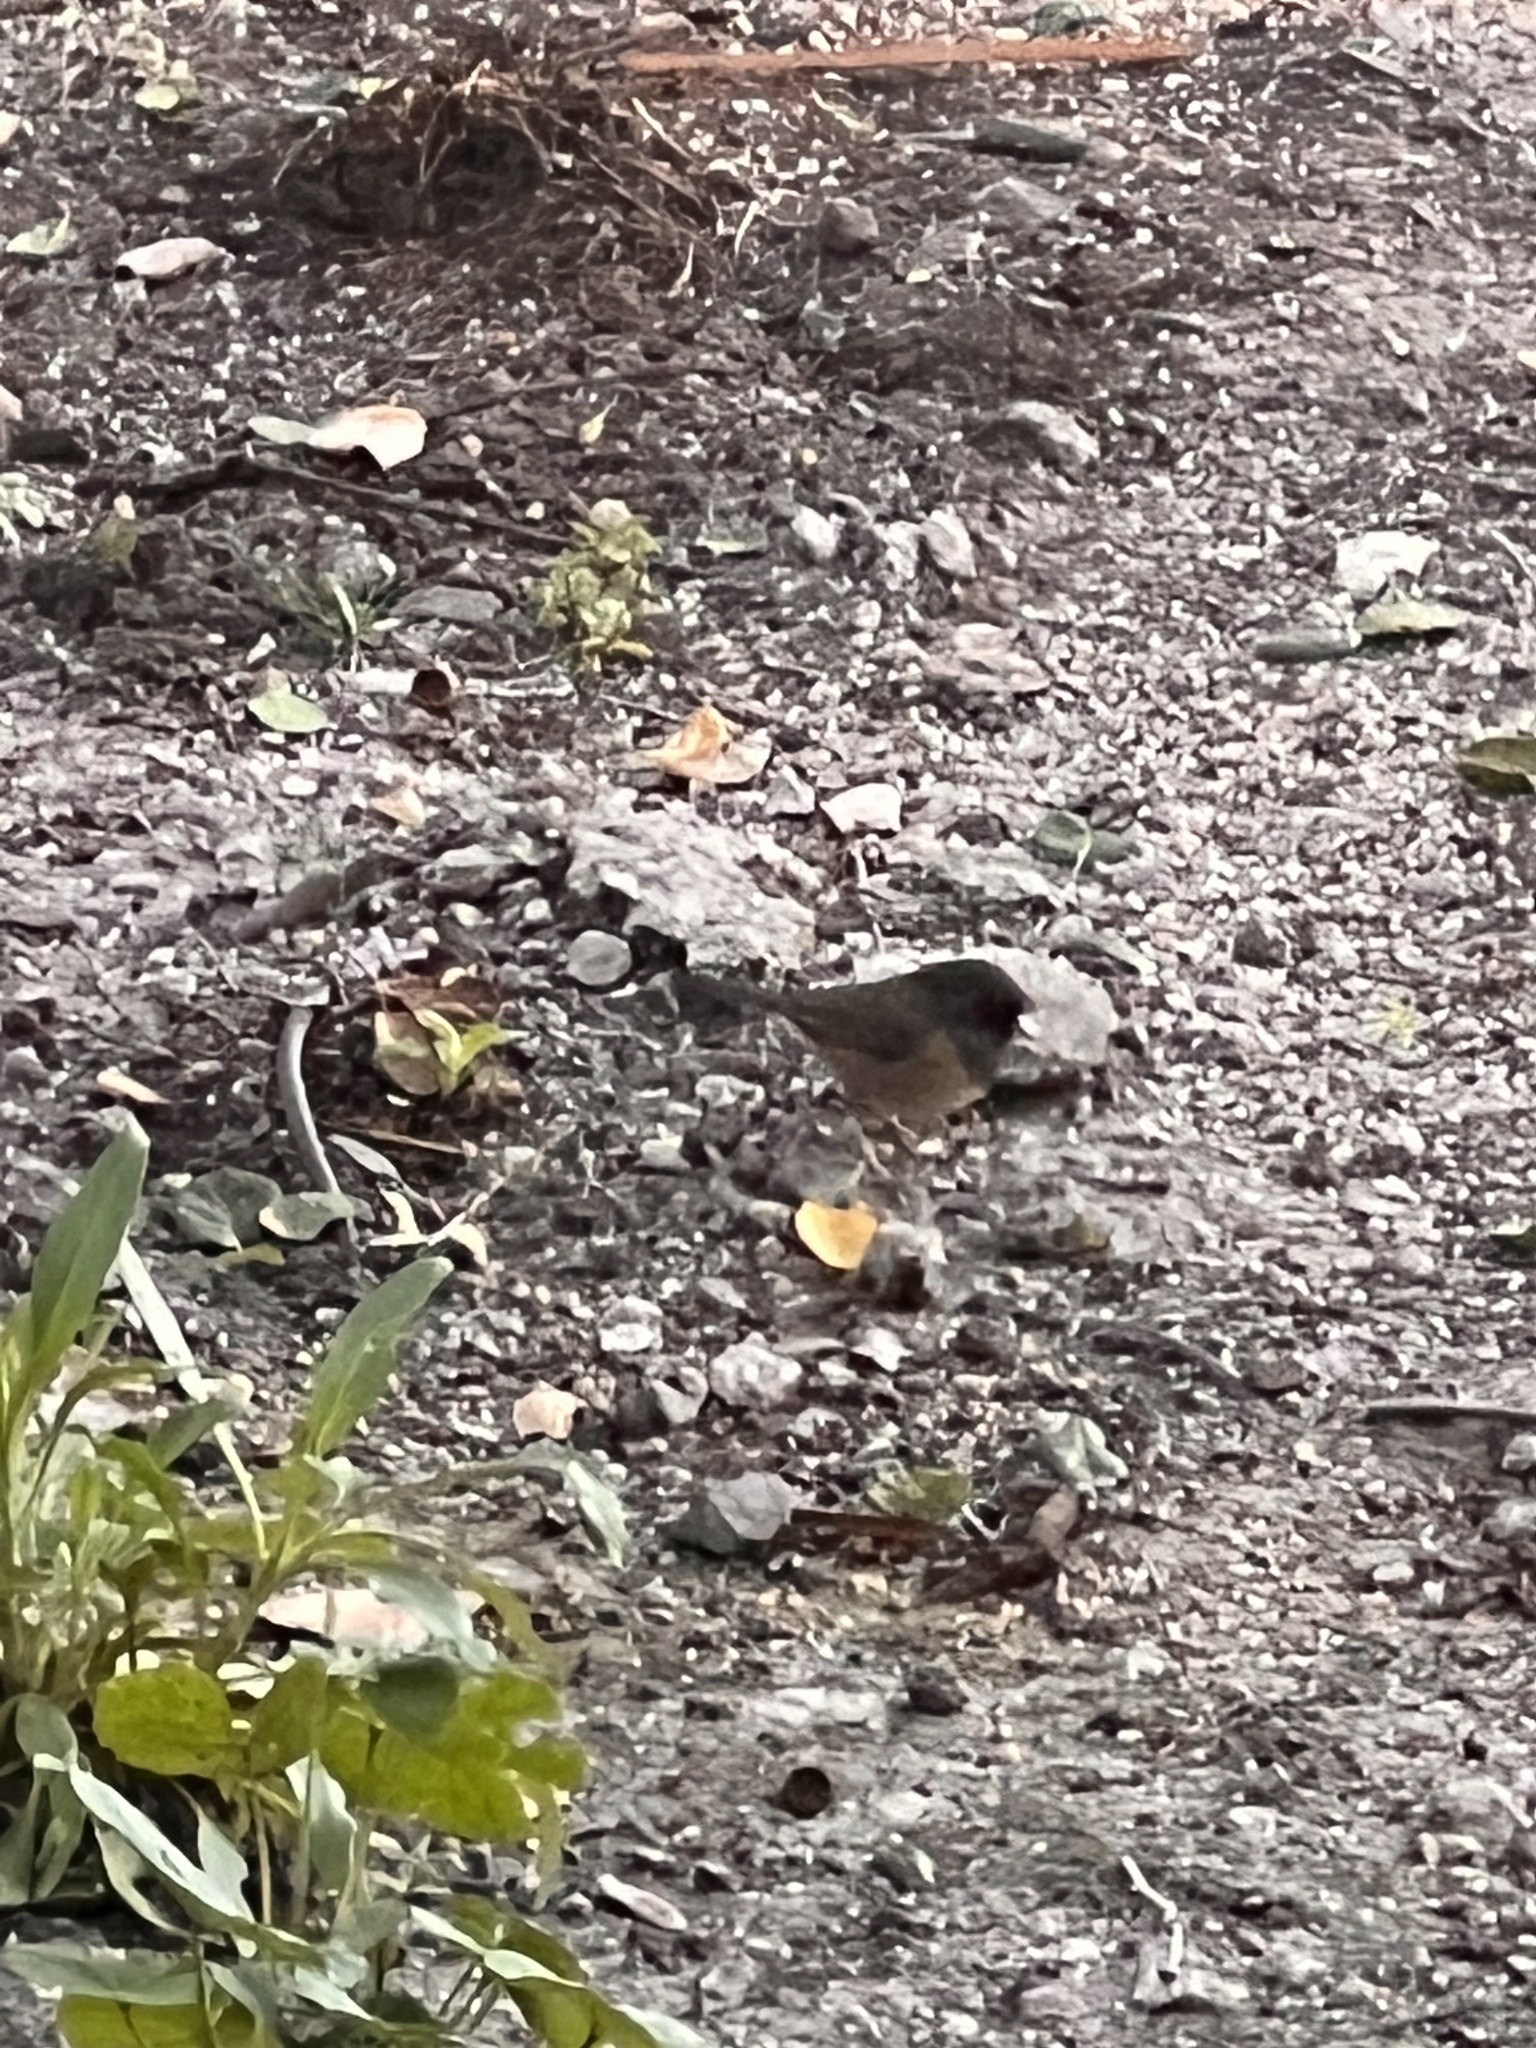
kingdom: Animalia
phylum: Chordata
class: Aves
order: Passeriformes
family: Passerellidae
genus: Junco
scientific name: Junco hyemalis
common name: Dark-eyed junco
